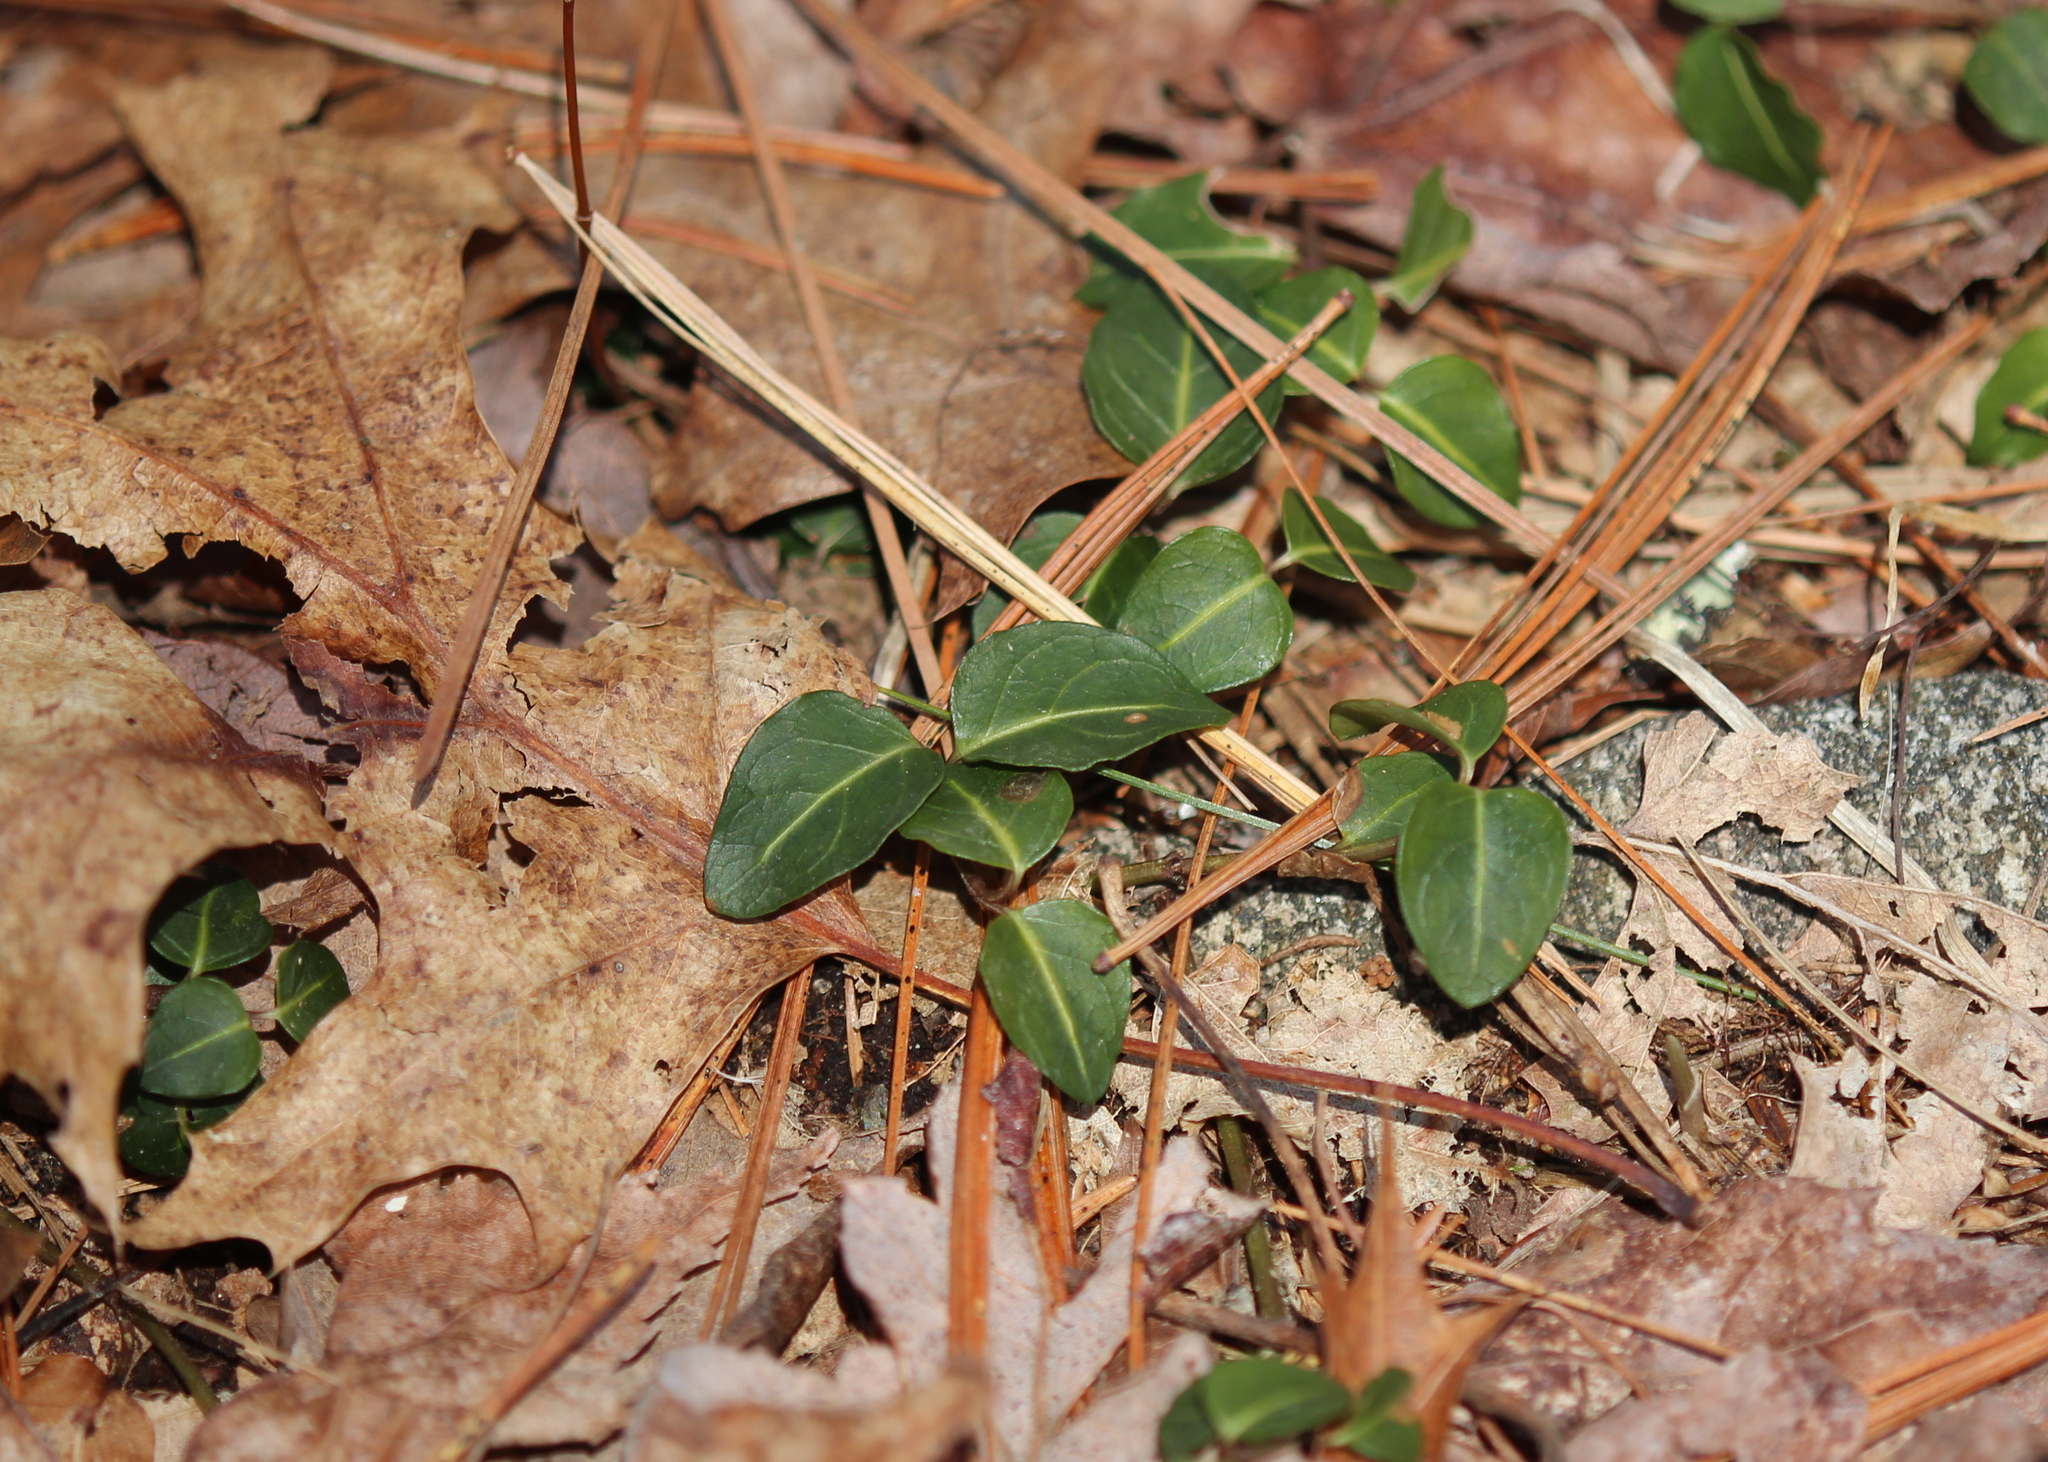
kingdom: Plantae
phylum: Tracheophyta
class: Magnoliopsida
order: Gentianales
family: Rubiaceae
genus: Mitchella
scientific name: Mitchella repens
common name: Partridge-berry
